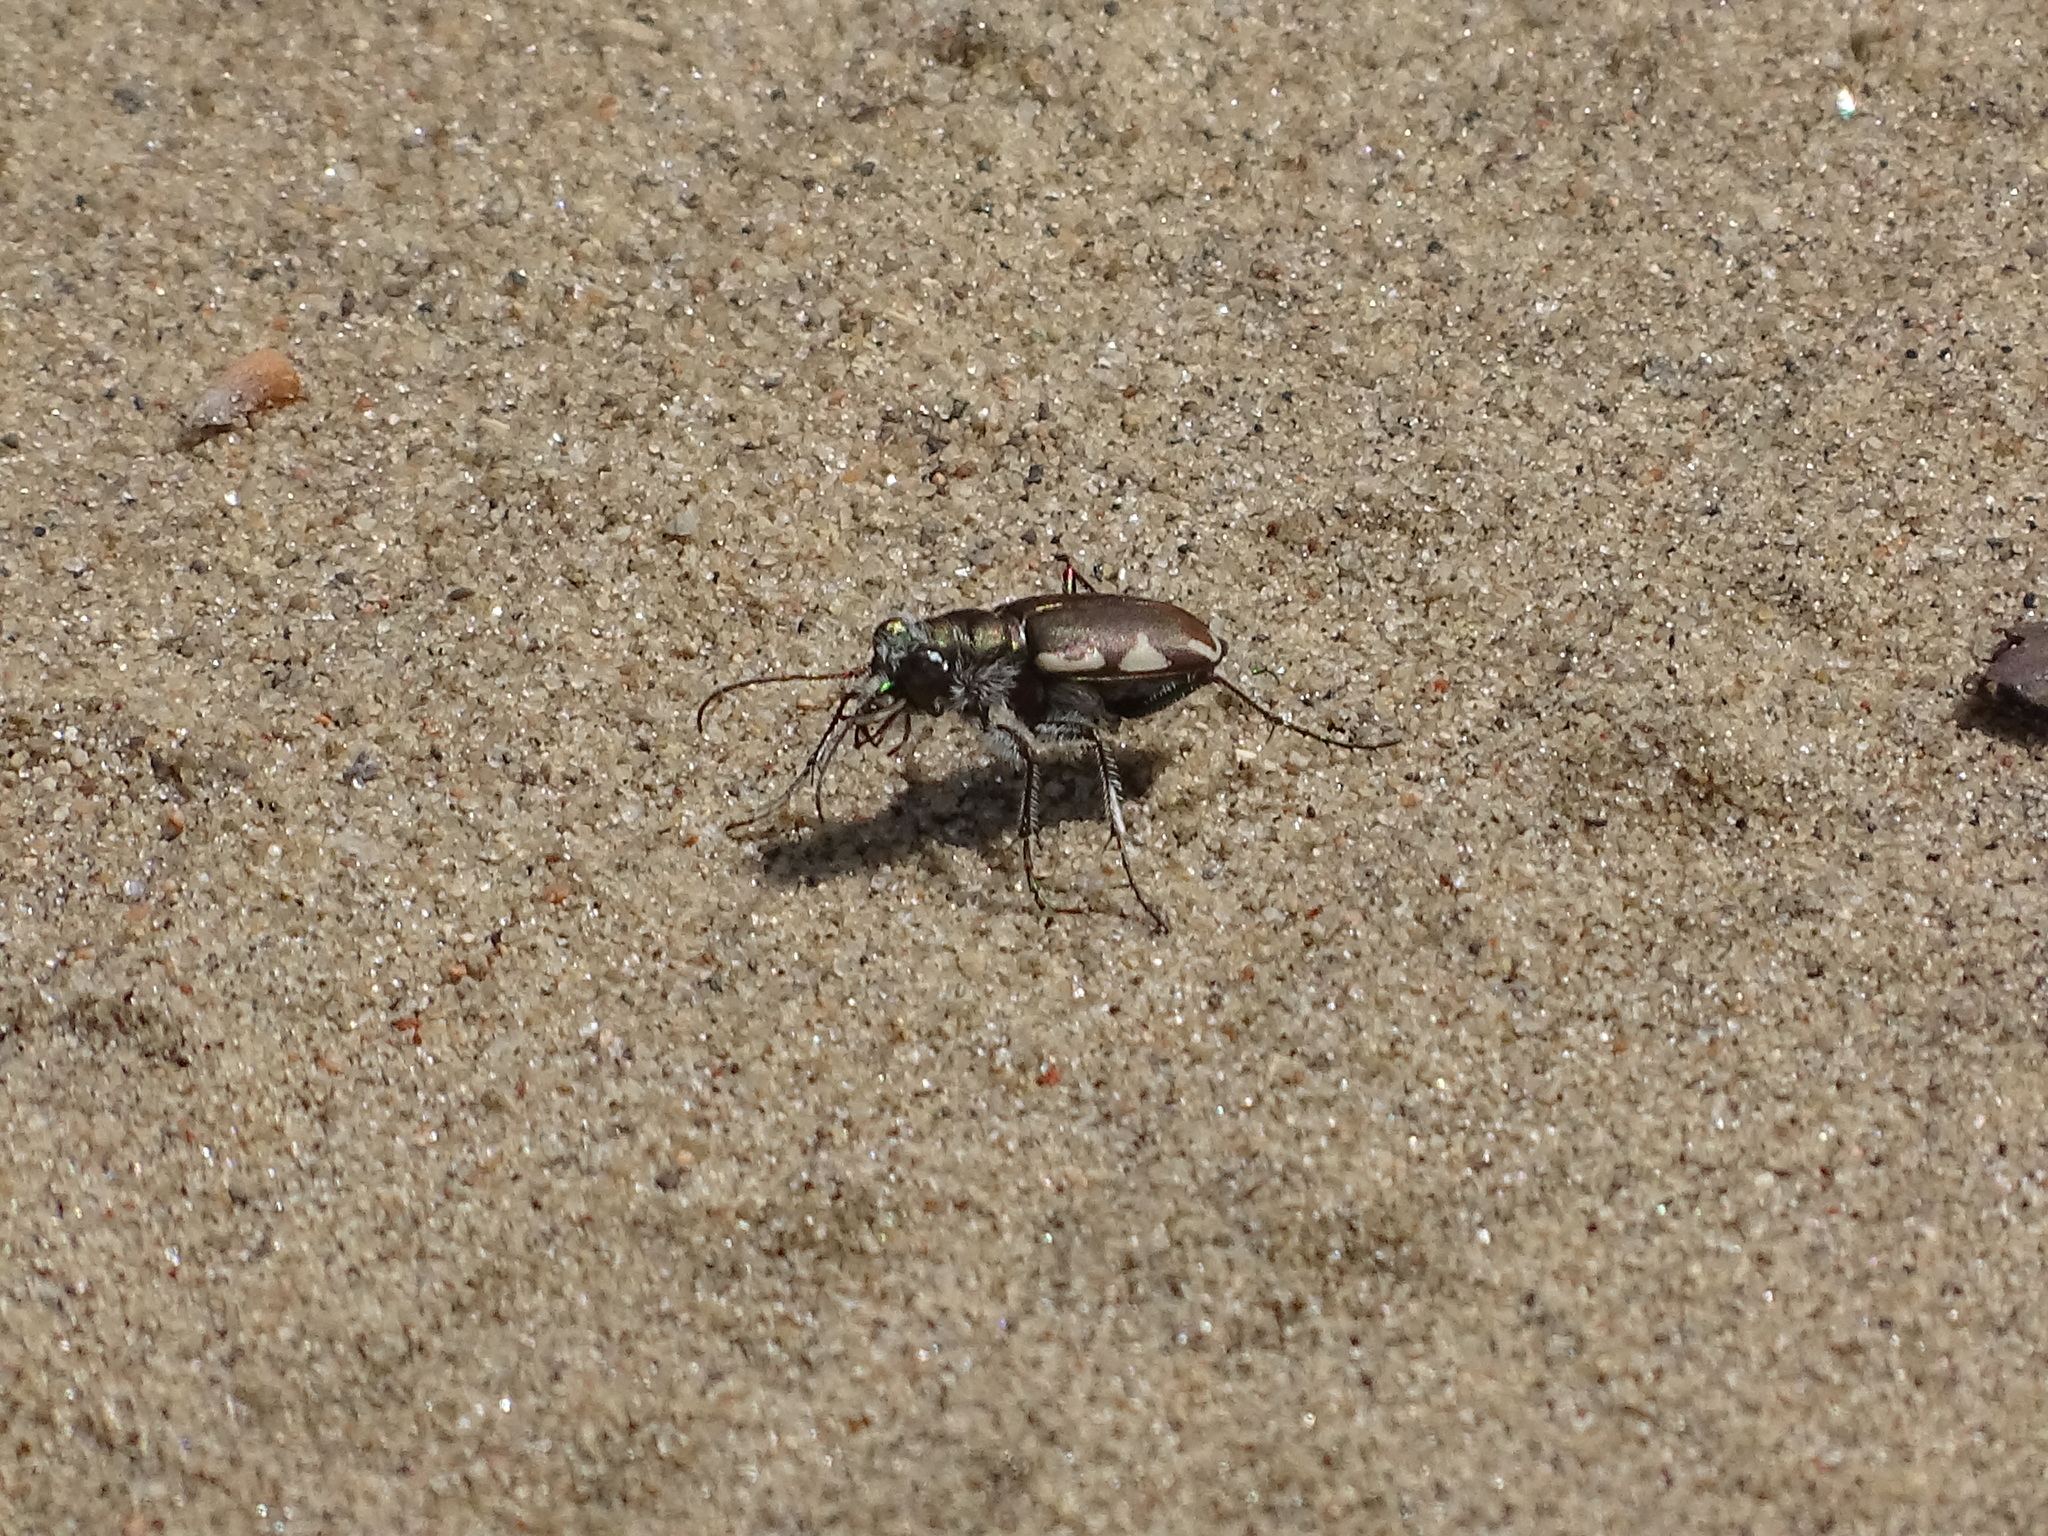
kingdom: Animalia
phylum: Arthropoda
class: Insecta
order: Coleoptera
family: Carabidae
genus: Cicindela
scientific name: Cicindela scutellaris
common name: Festive tiger beetle
